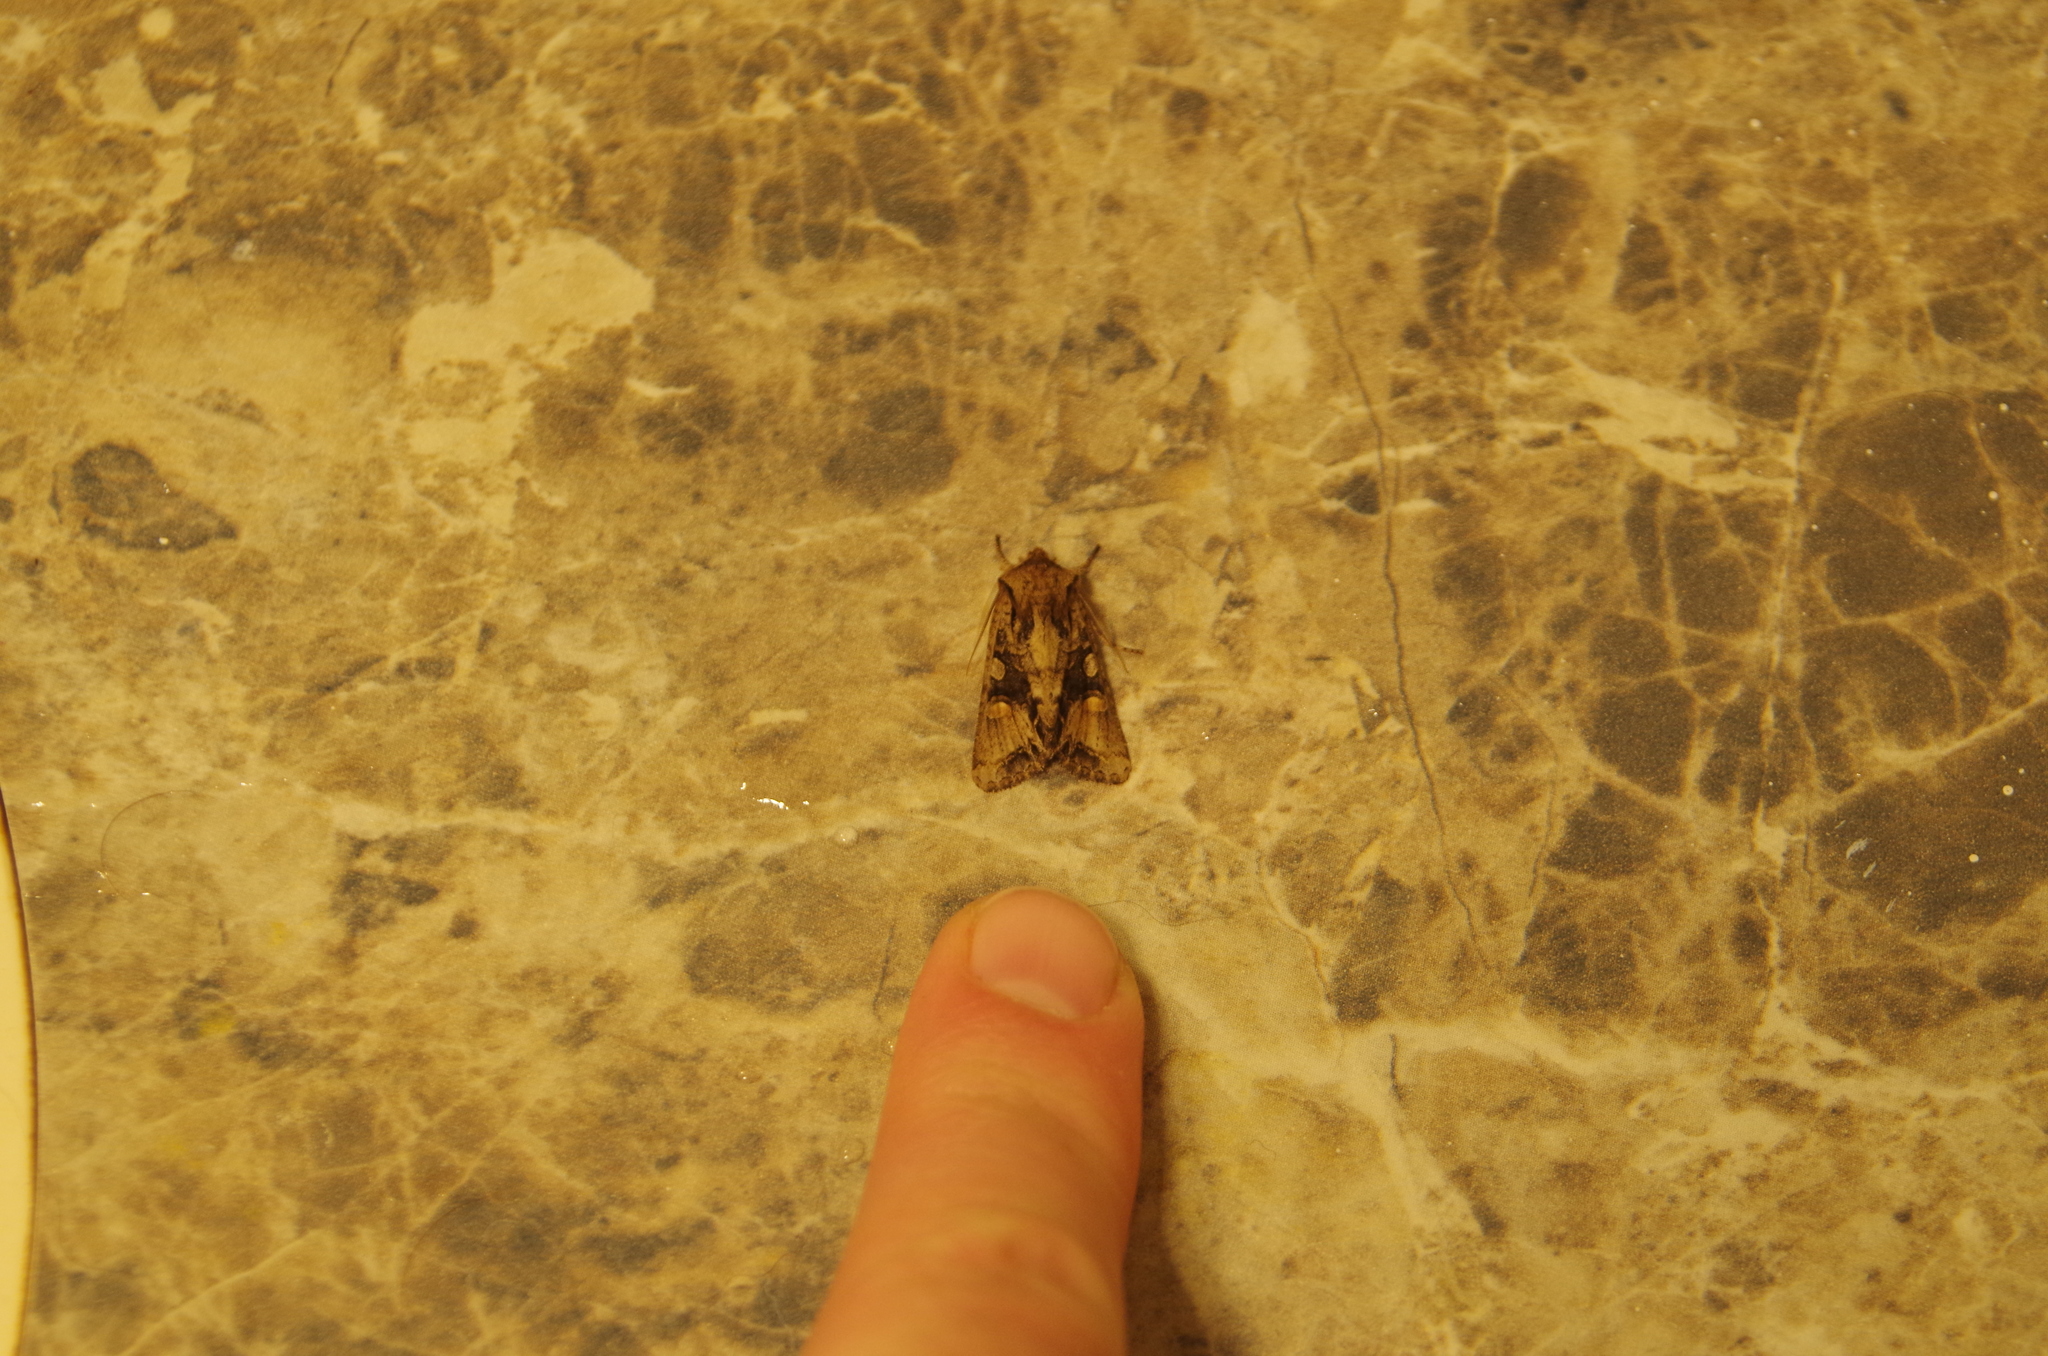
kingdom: Animalia
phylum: Arthropoda
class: Insecta
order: Lepidoptera
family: Noctuidae
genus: Ichneutica
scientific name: Ichneutica
